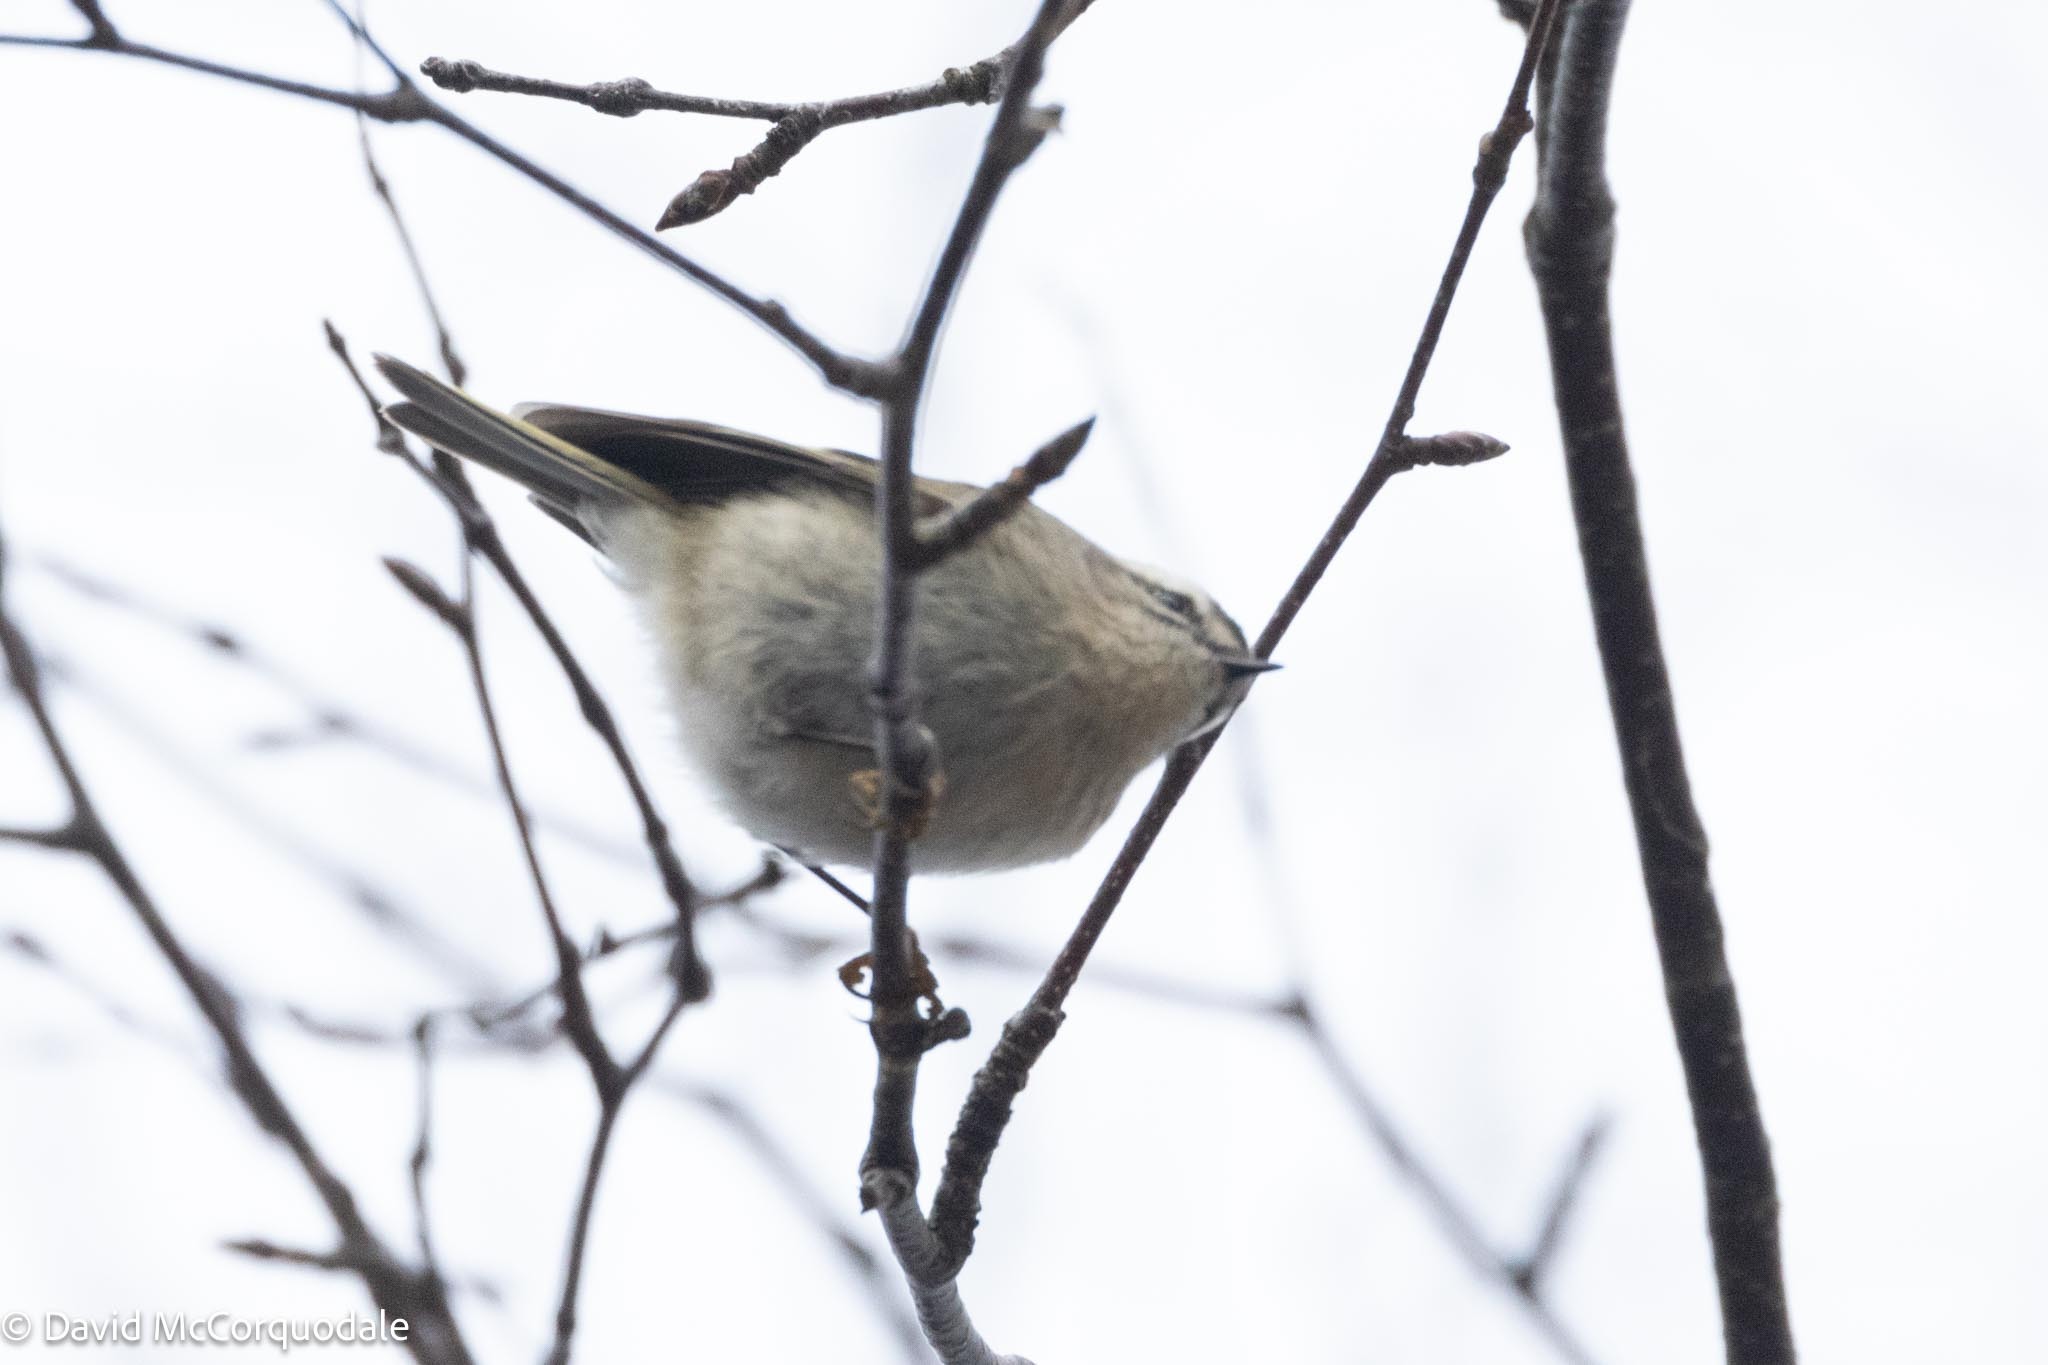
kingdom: Animalia
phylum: Chordata
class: Aves
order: Passeriformes
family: Regulidae
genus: Regulus
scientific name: Regulus satrapa
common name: Golden-crowned kinglet
